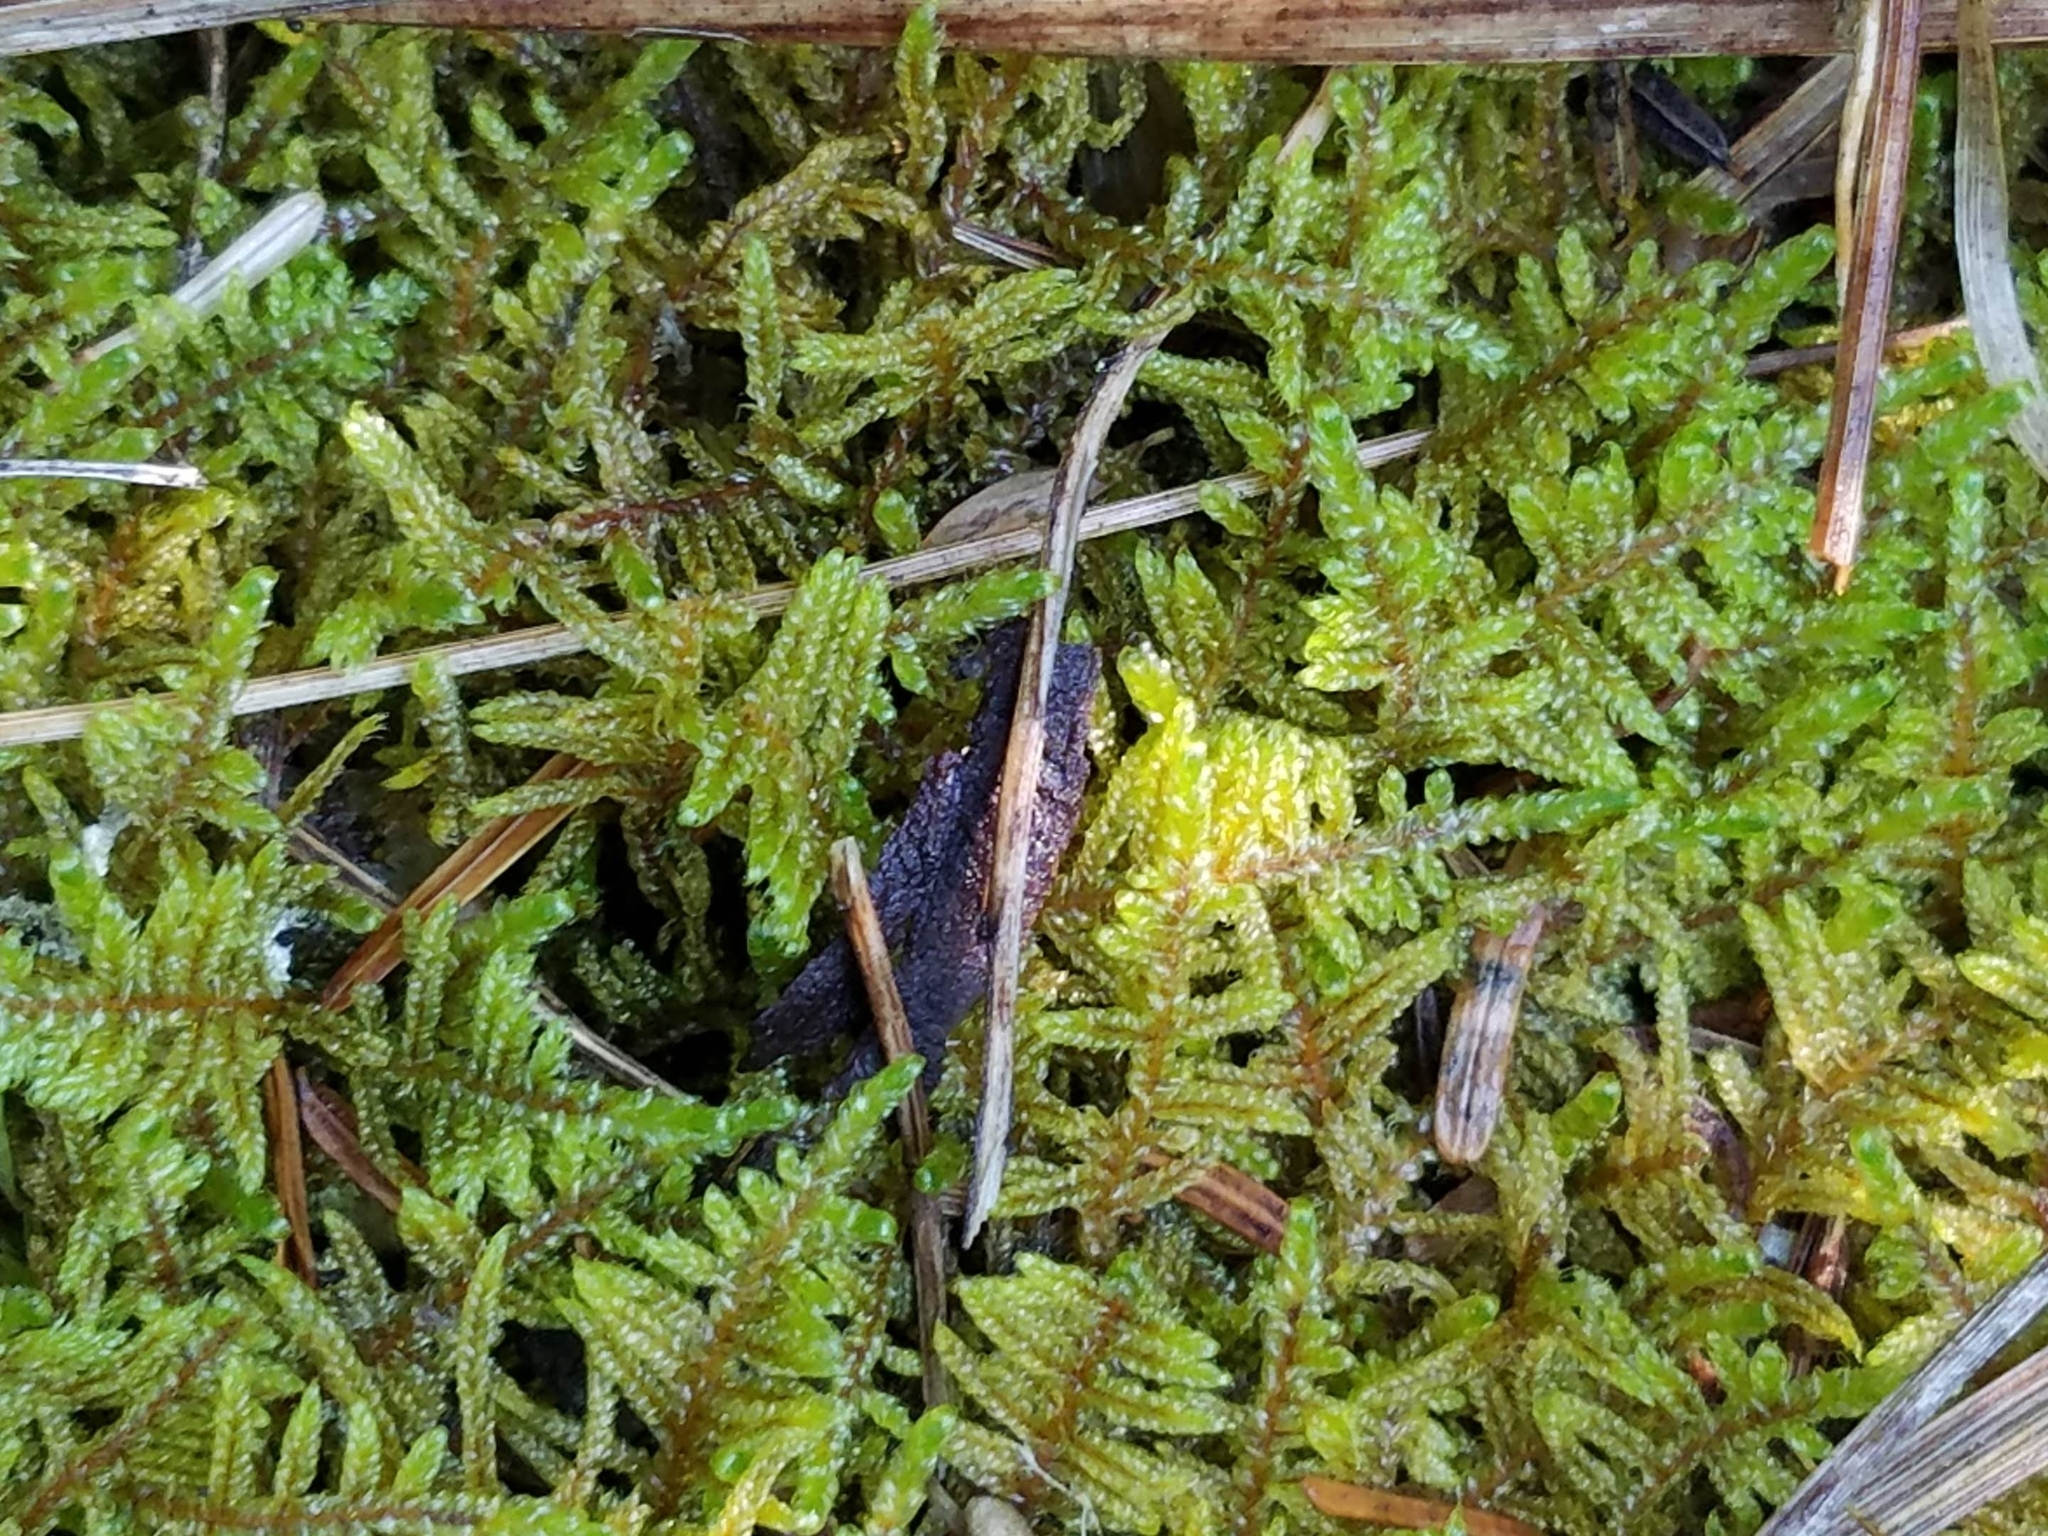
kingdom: Plantae
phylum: Bryophyta
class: Bryopsida
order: Hypnales
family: Callicladiaceae
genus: Callicladium
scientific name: Callicladium imponens
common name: Brocade moss
